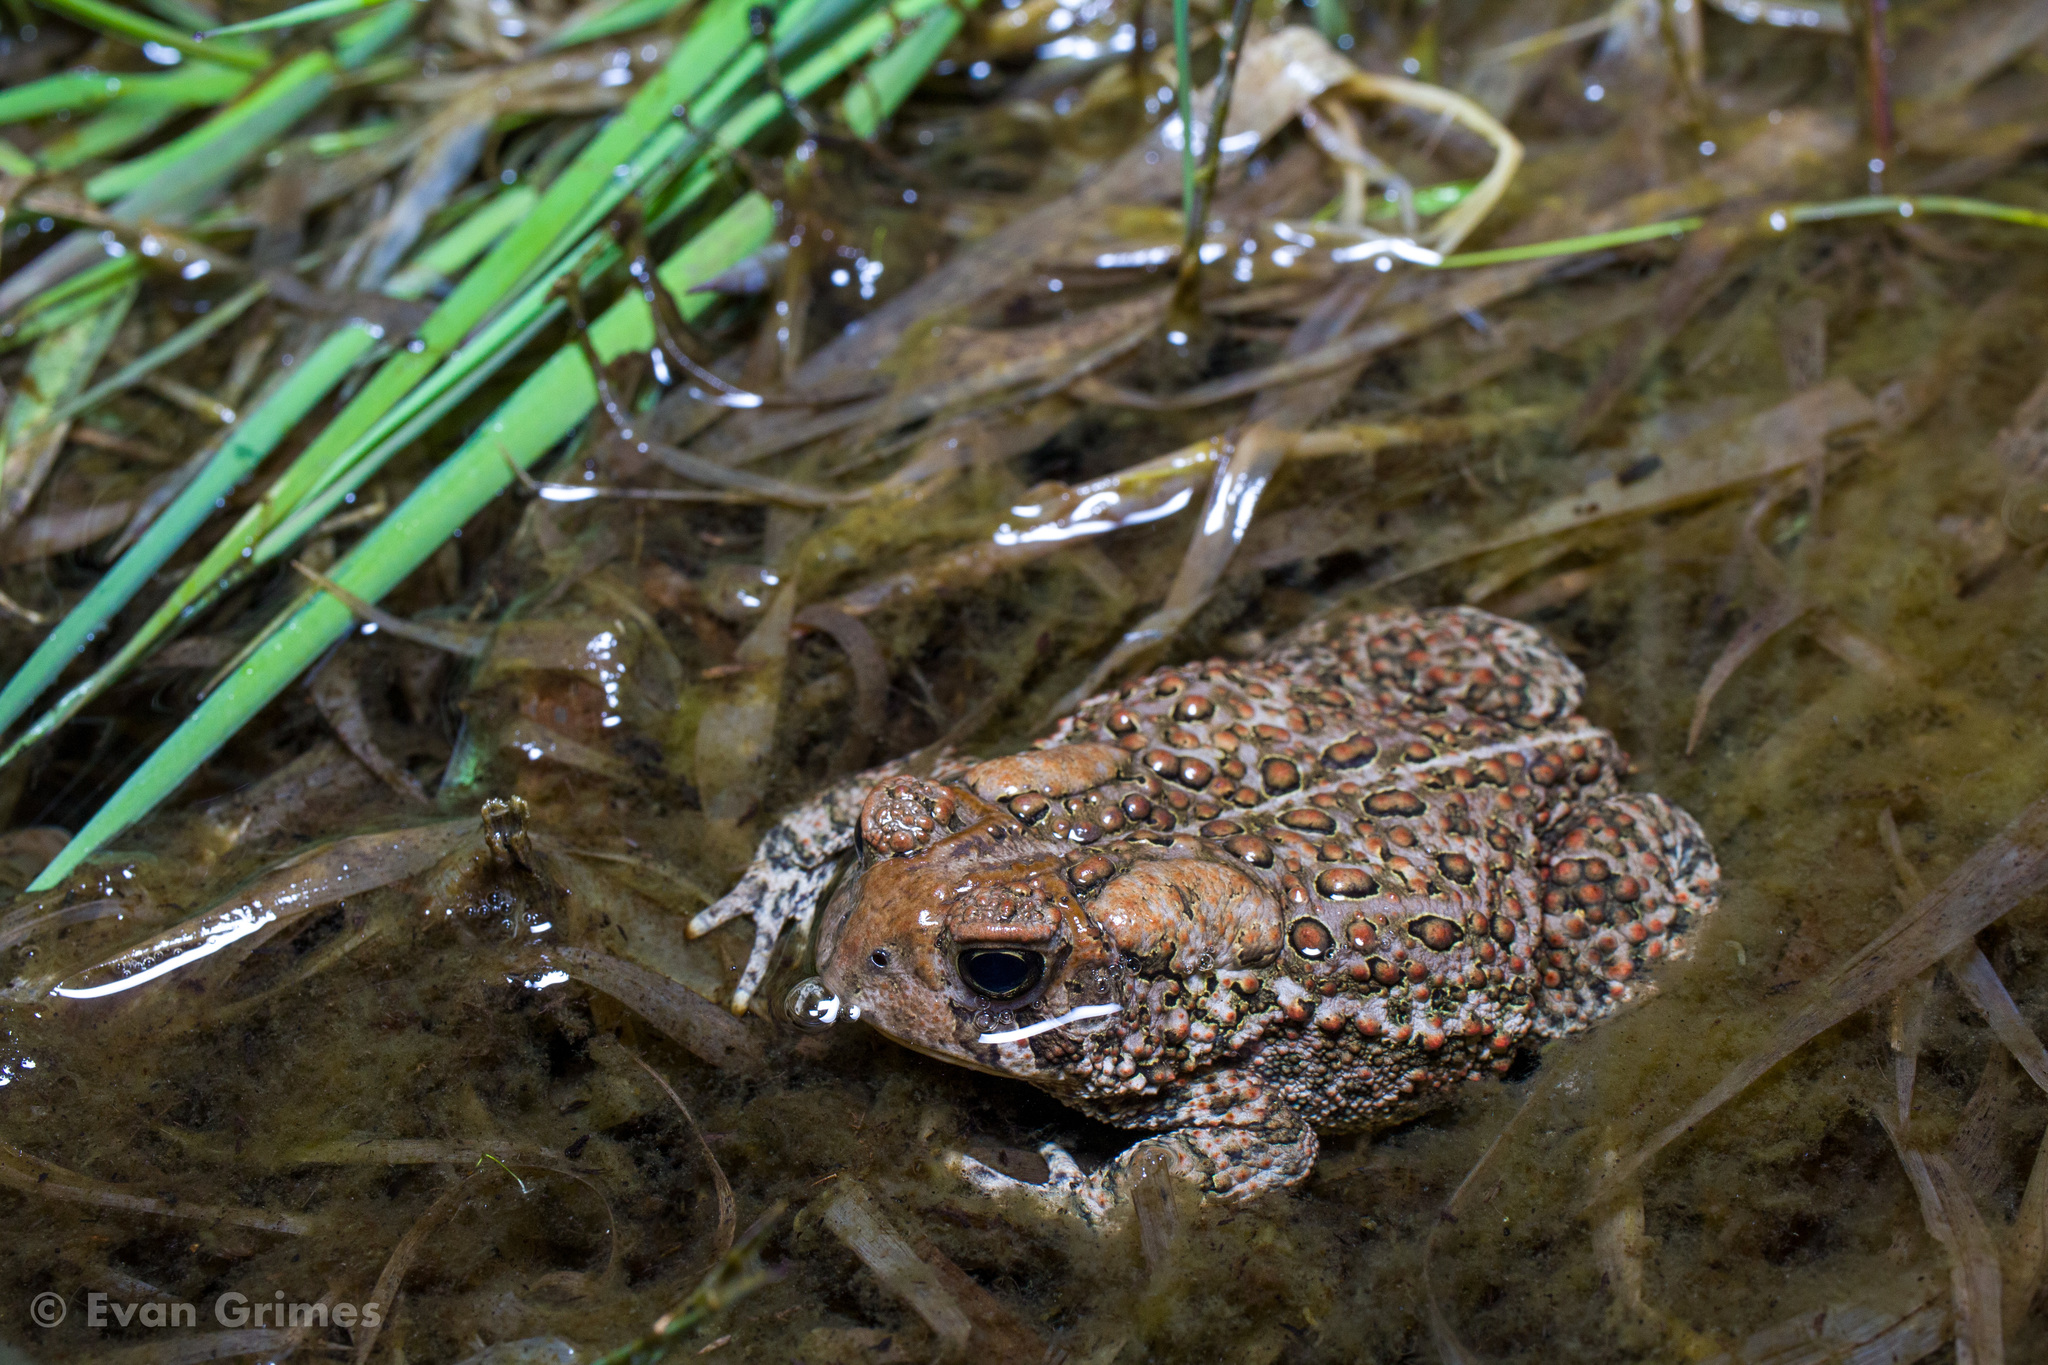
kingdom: Animalia
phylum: Chordata
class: Amphibia
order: Anura
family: Bufonidae
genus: Anaxyrus
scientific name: Anaxyrus americanus
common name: American toad
